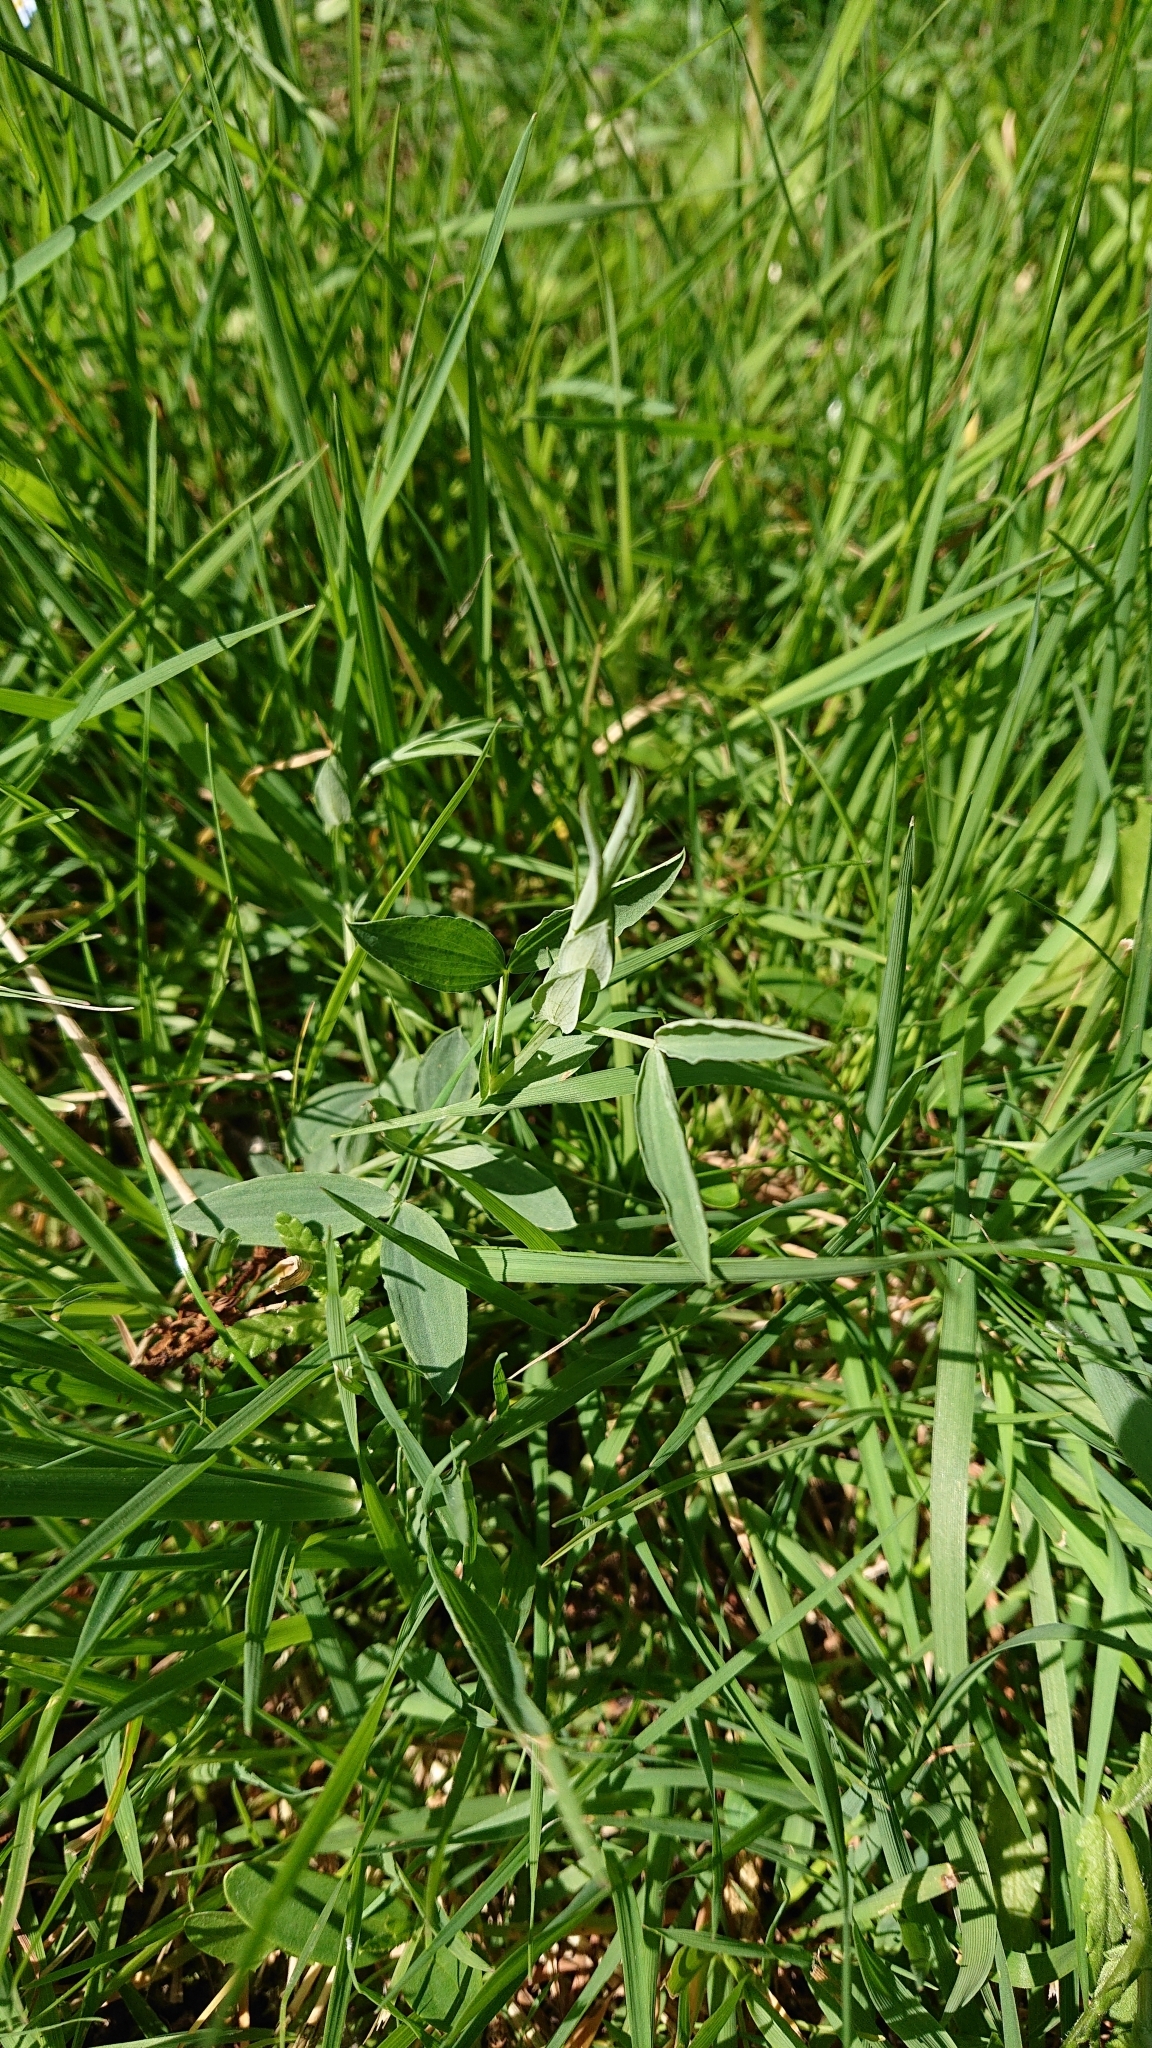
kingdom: Plantae
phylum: Tracheophyta
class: Magnoliopsida
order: Fabales
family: Fabaceae
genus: Lathyrus
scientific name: Lathyrus pratensis
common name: Meadow vetchling
